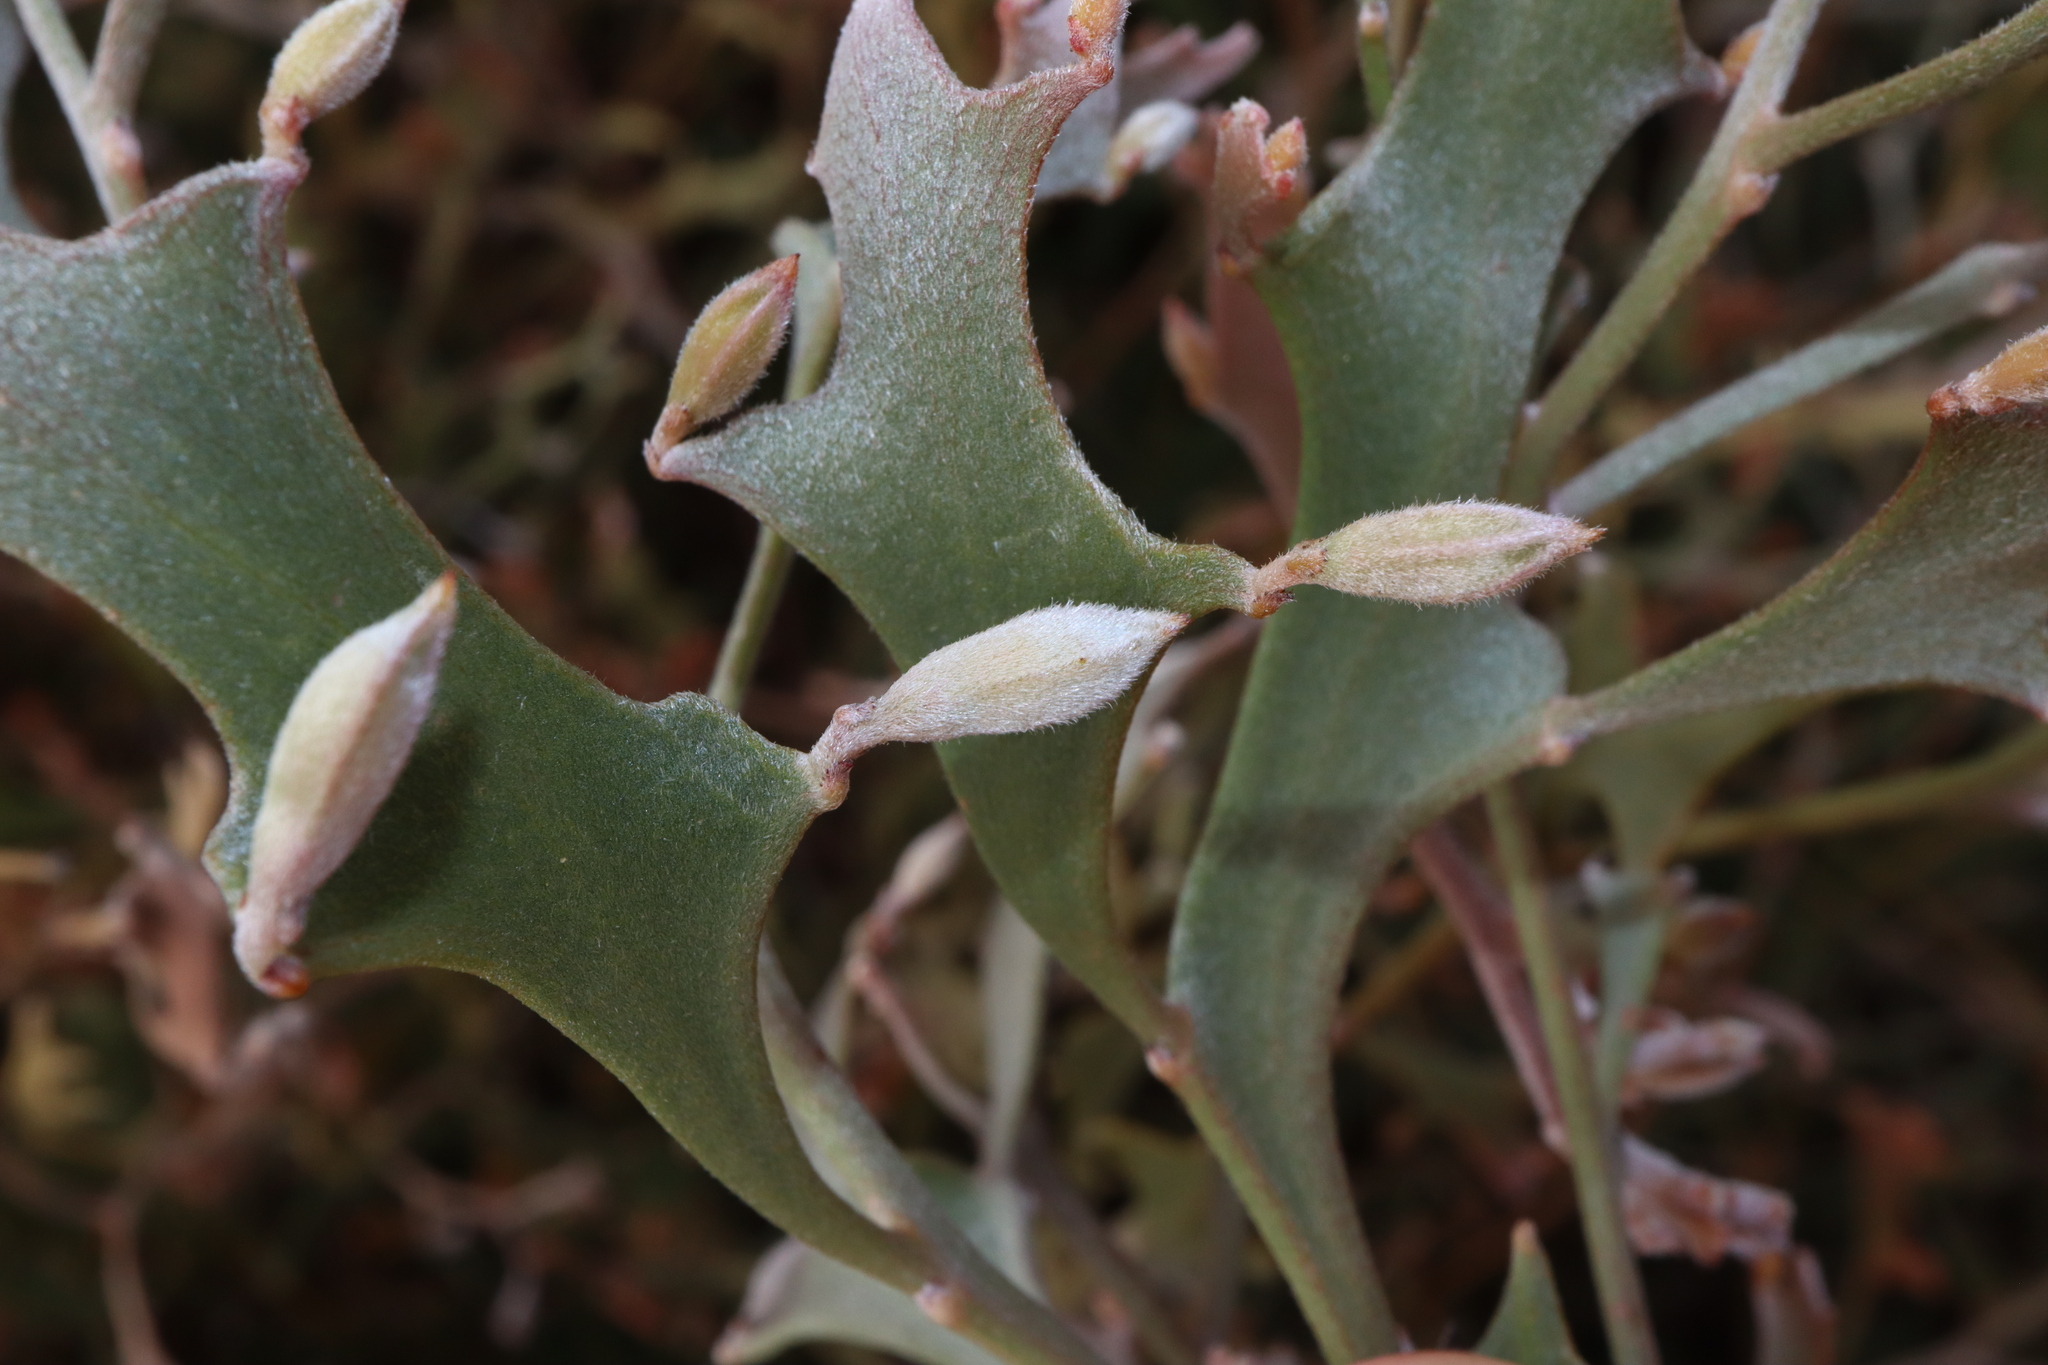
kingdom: Plantae
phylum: Tracheophyta
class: Magnoliopsida
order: Fabales
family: Fabaceae
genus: Jacksonia
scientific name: Jacksonia grevilleoides
